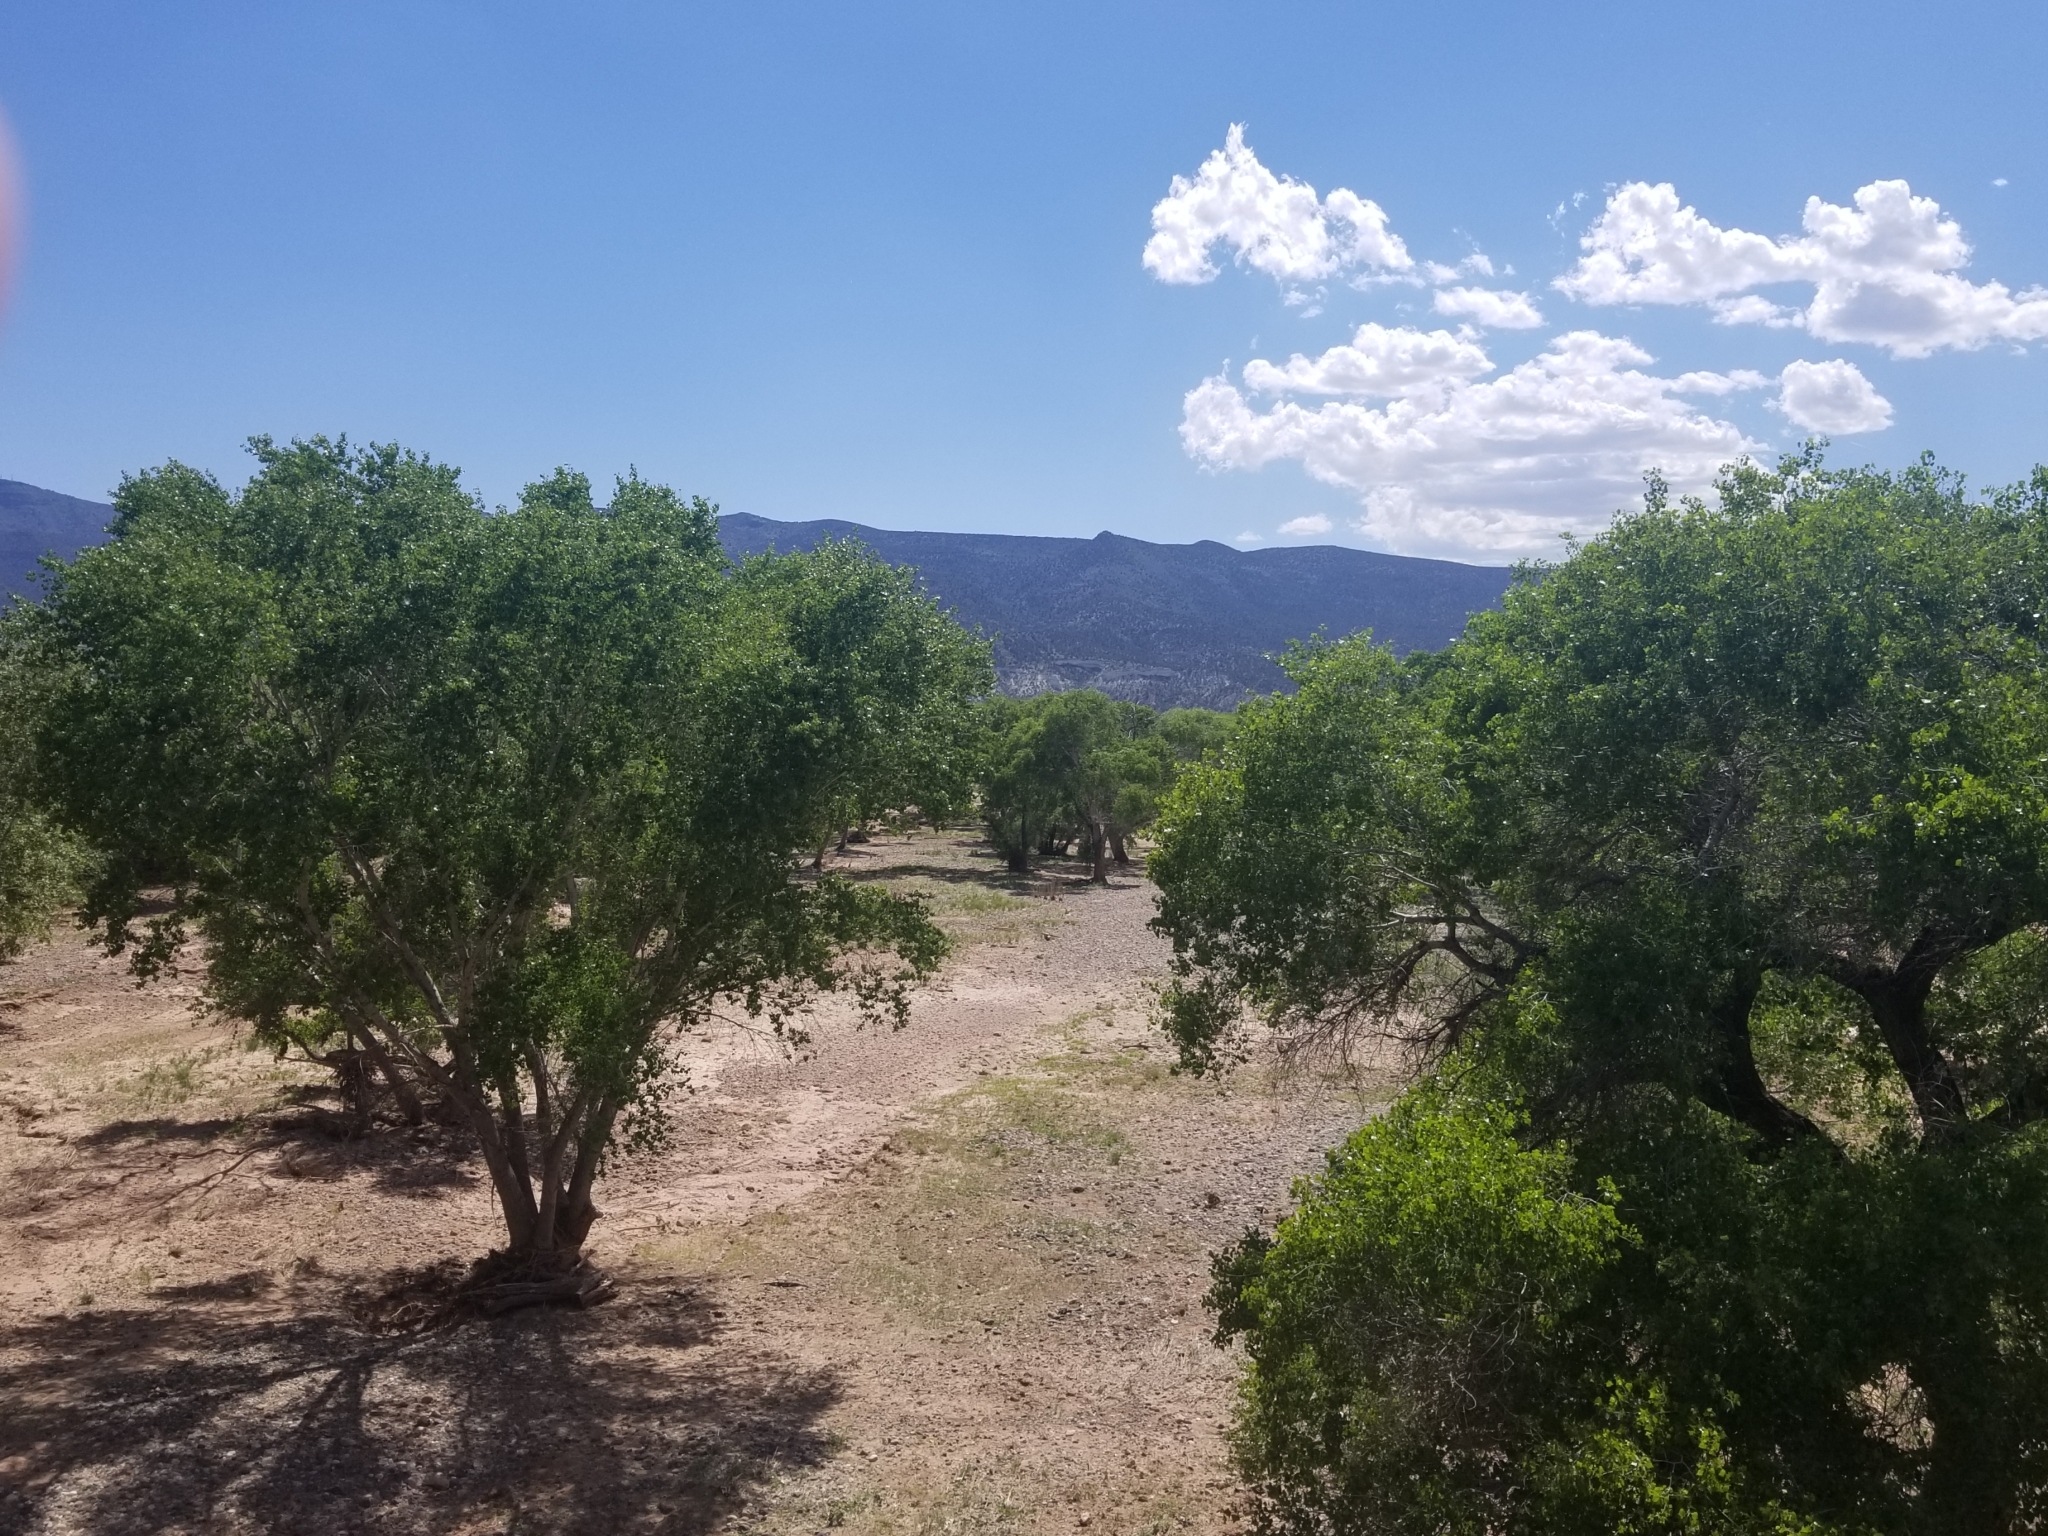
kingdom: Plantae
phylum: Tracheophyta
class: Magnoliopsida
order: Malpighiales
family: Salicaceae
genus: Populus
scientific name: Populus fremontii
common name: Fremont's cottonwood
